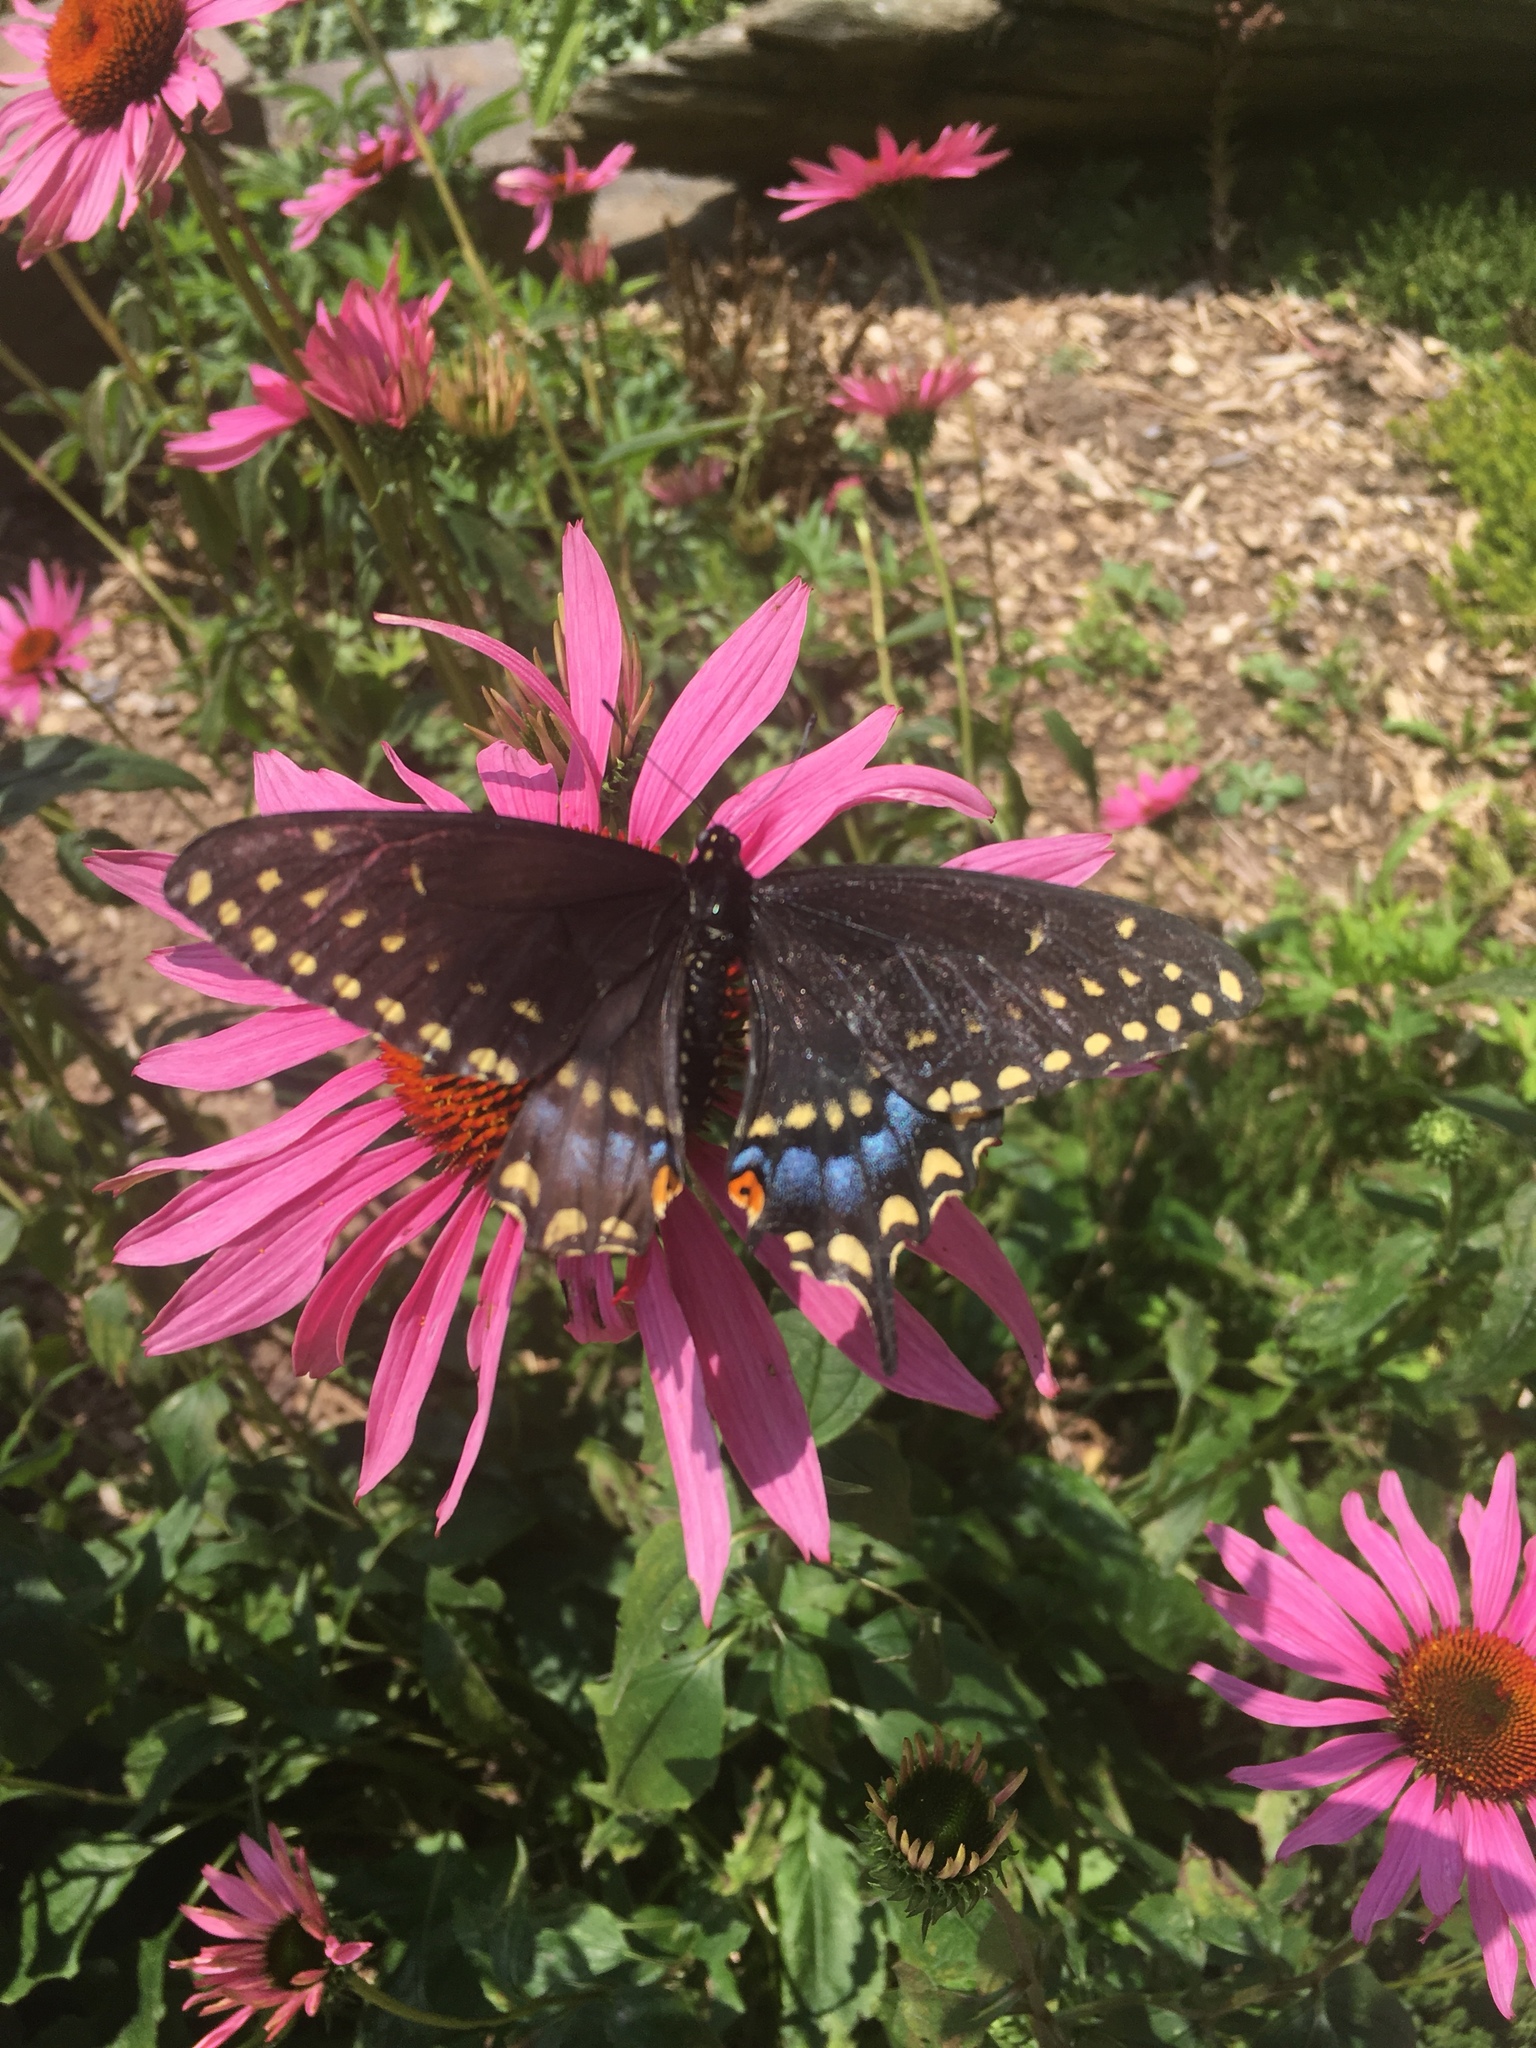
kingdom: Animalia
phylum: Arthropoda
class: Insecta
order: Lepidoptera
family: Papilionidae
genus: Papilio
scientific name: Papilio polyxenes
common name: Black swallowtail
